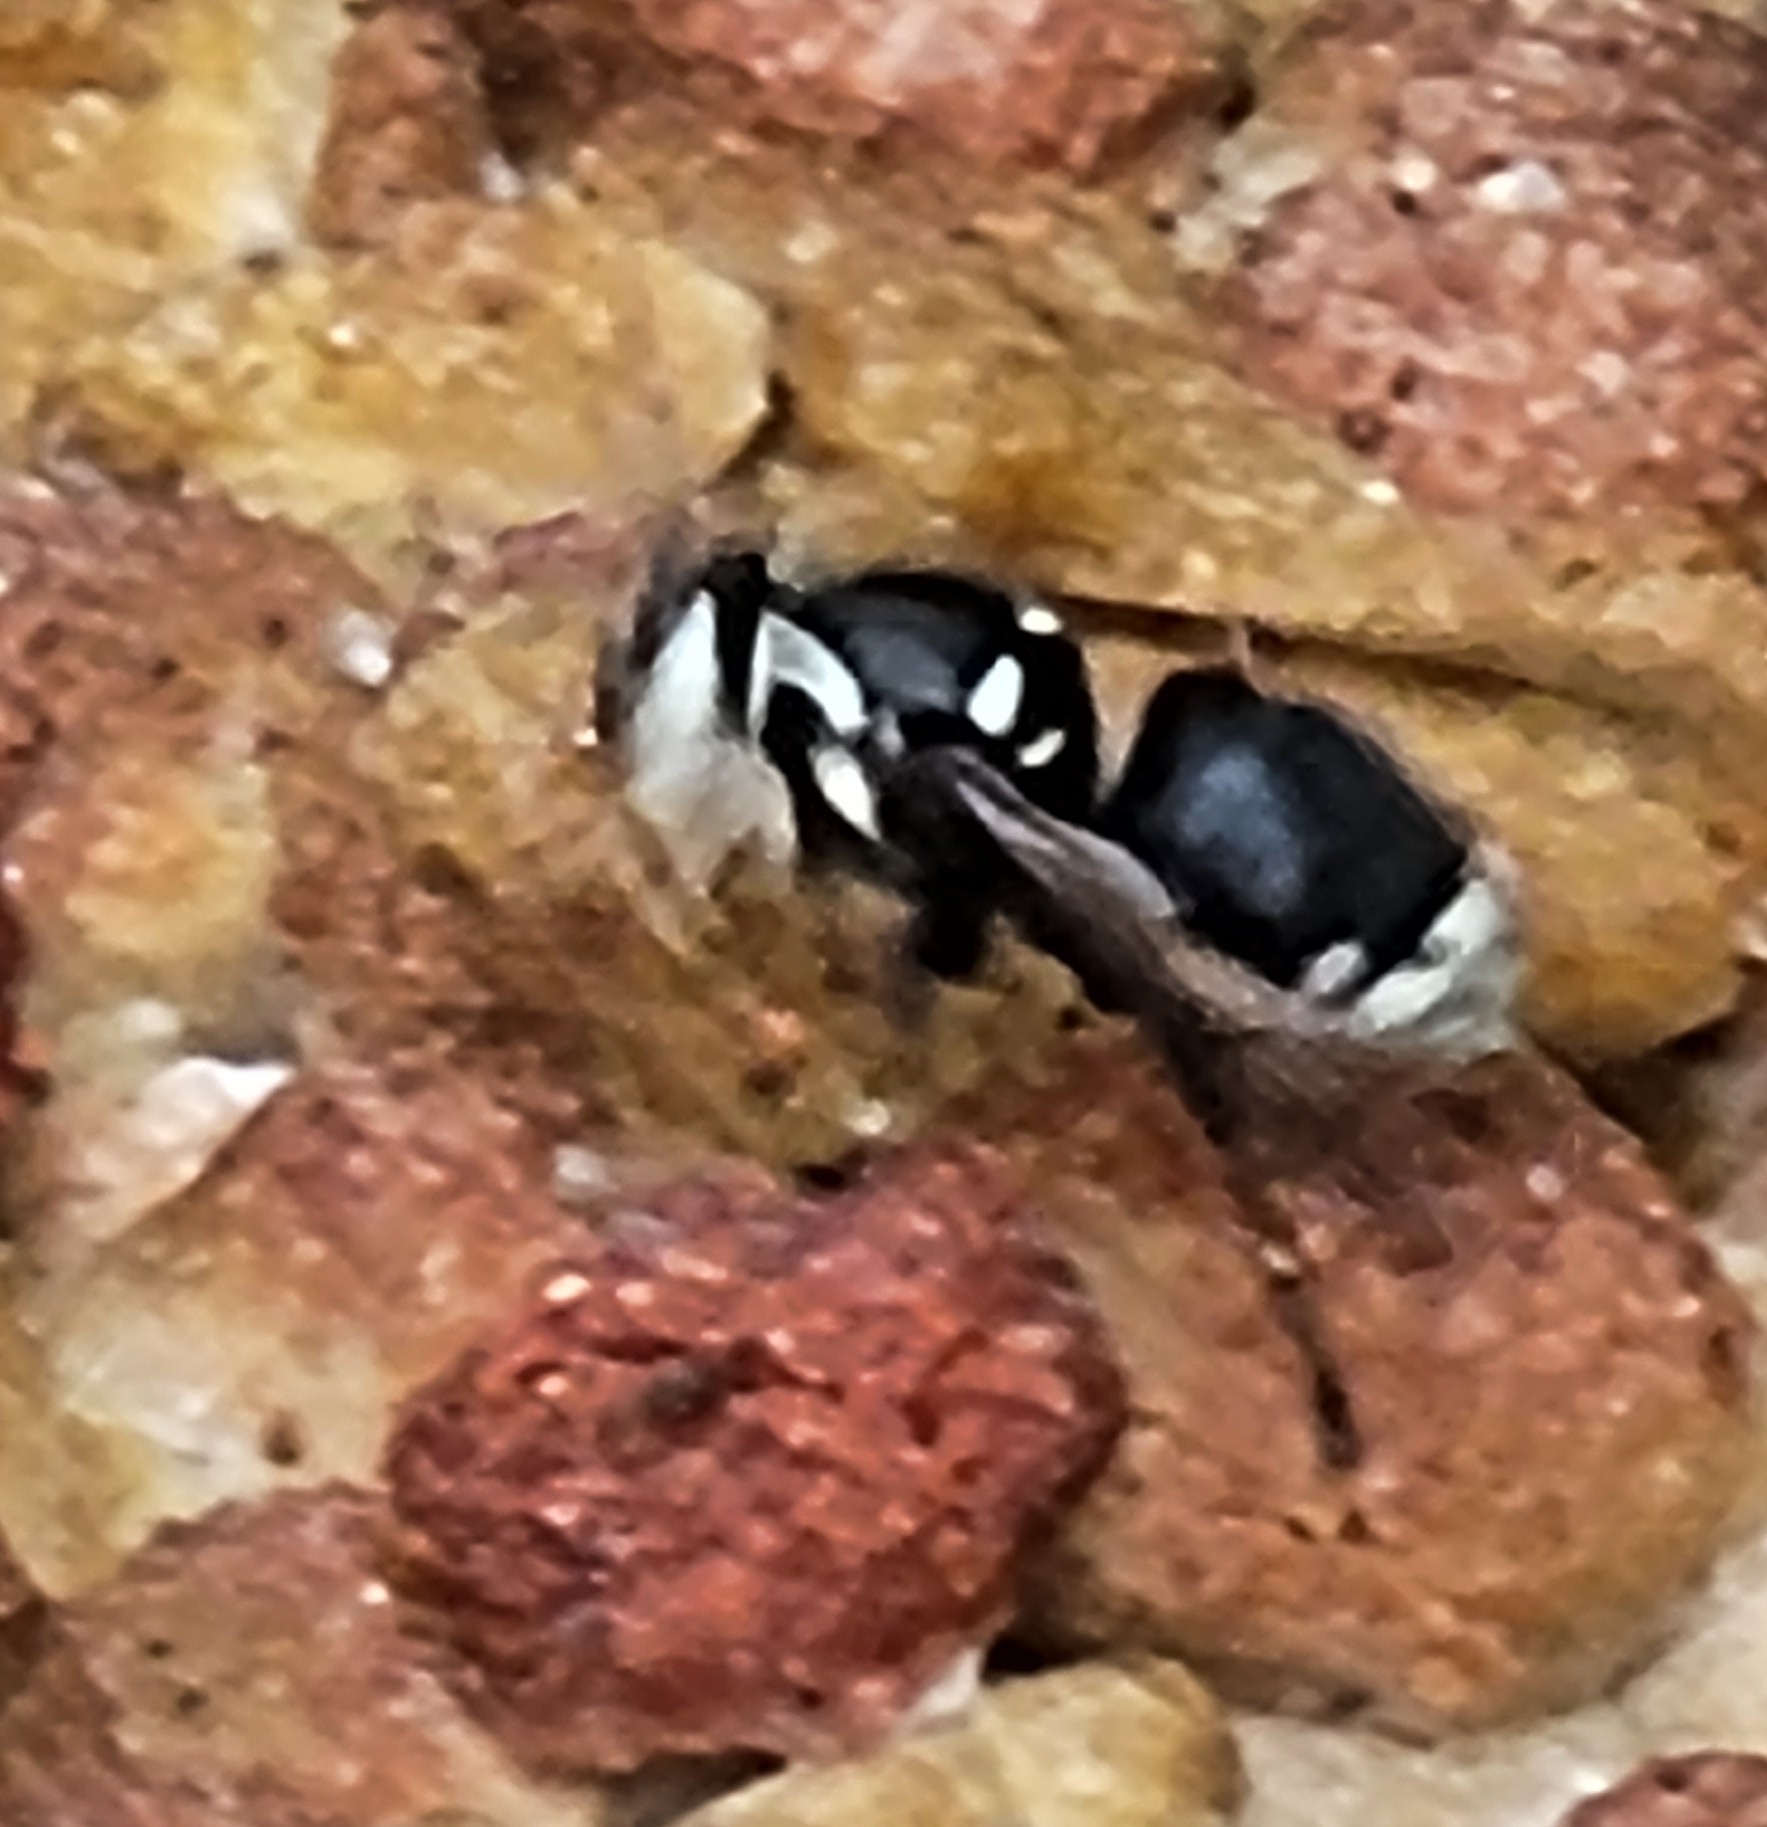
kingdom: Animalia
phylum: Arthropoda
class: Insecta
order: Hymenoptera
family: Vespidae
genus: Dolichovespula
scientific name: Dolichovespula maculata
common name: Bald-faced hornet
